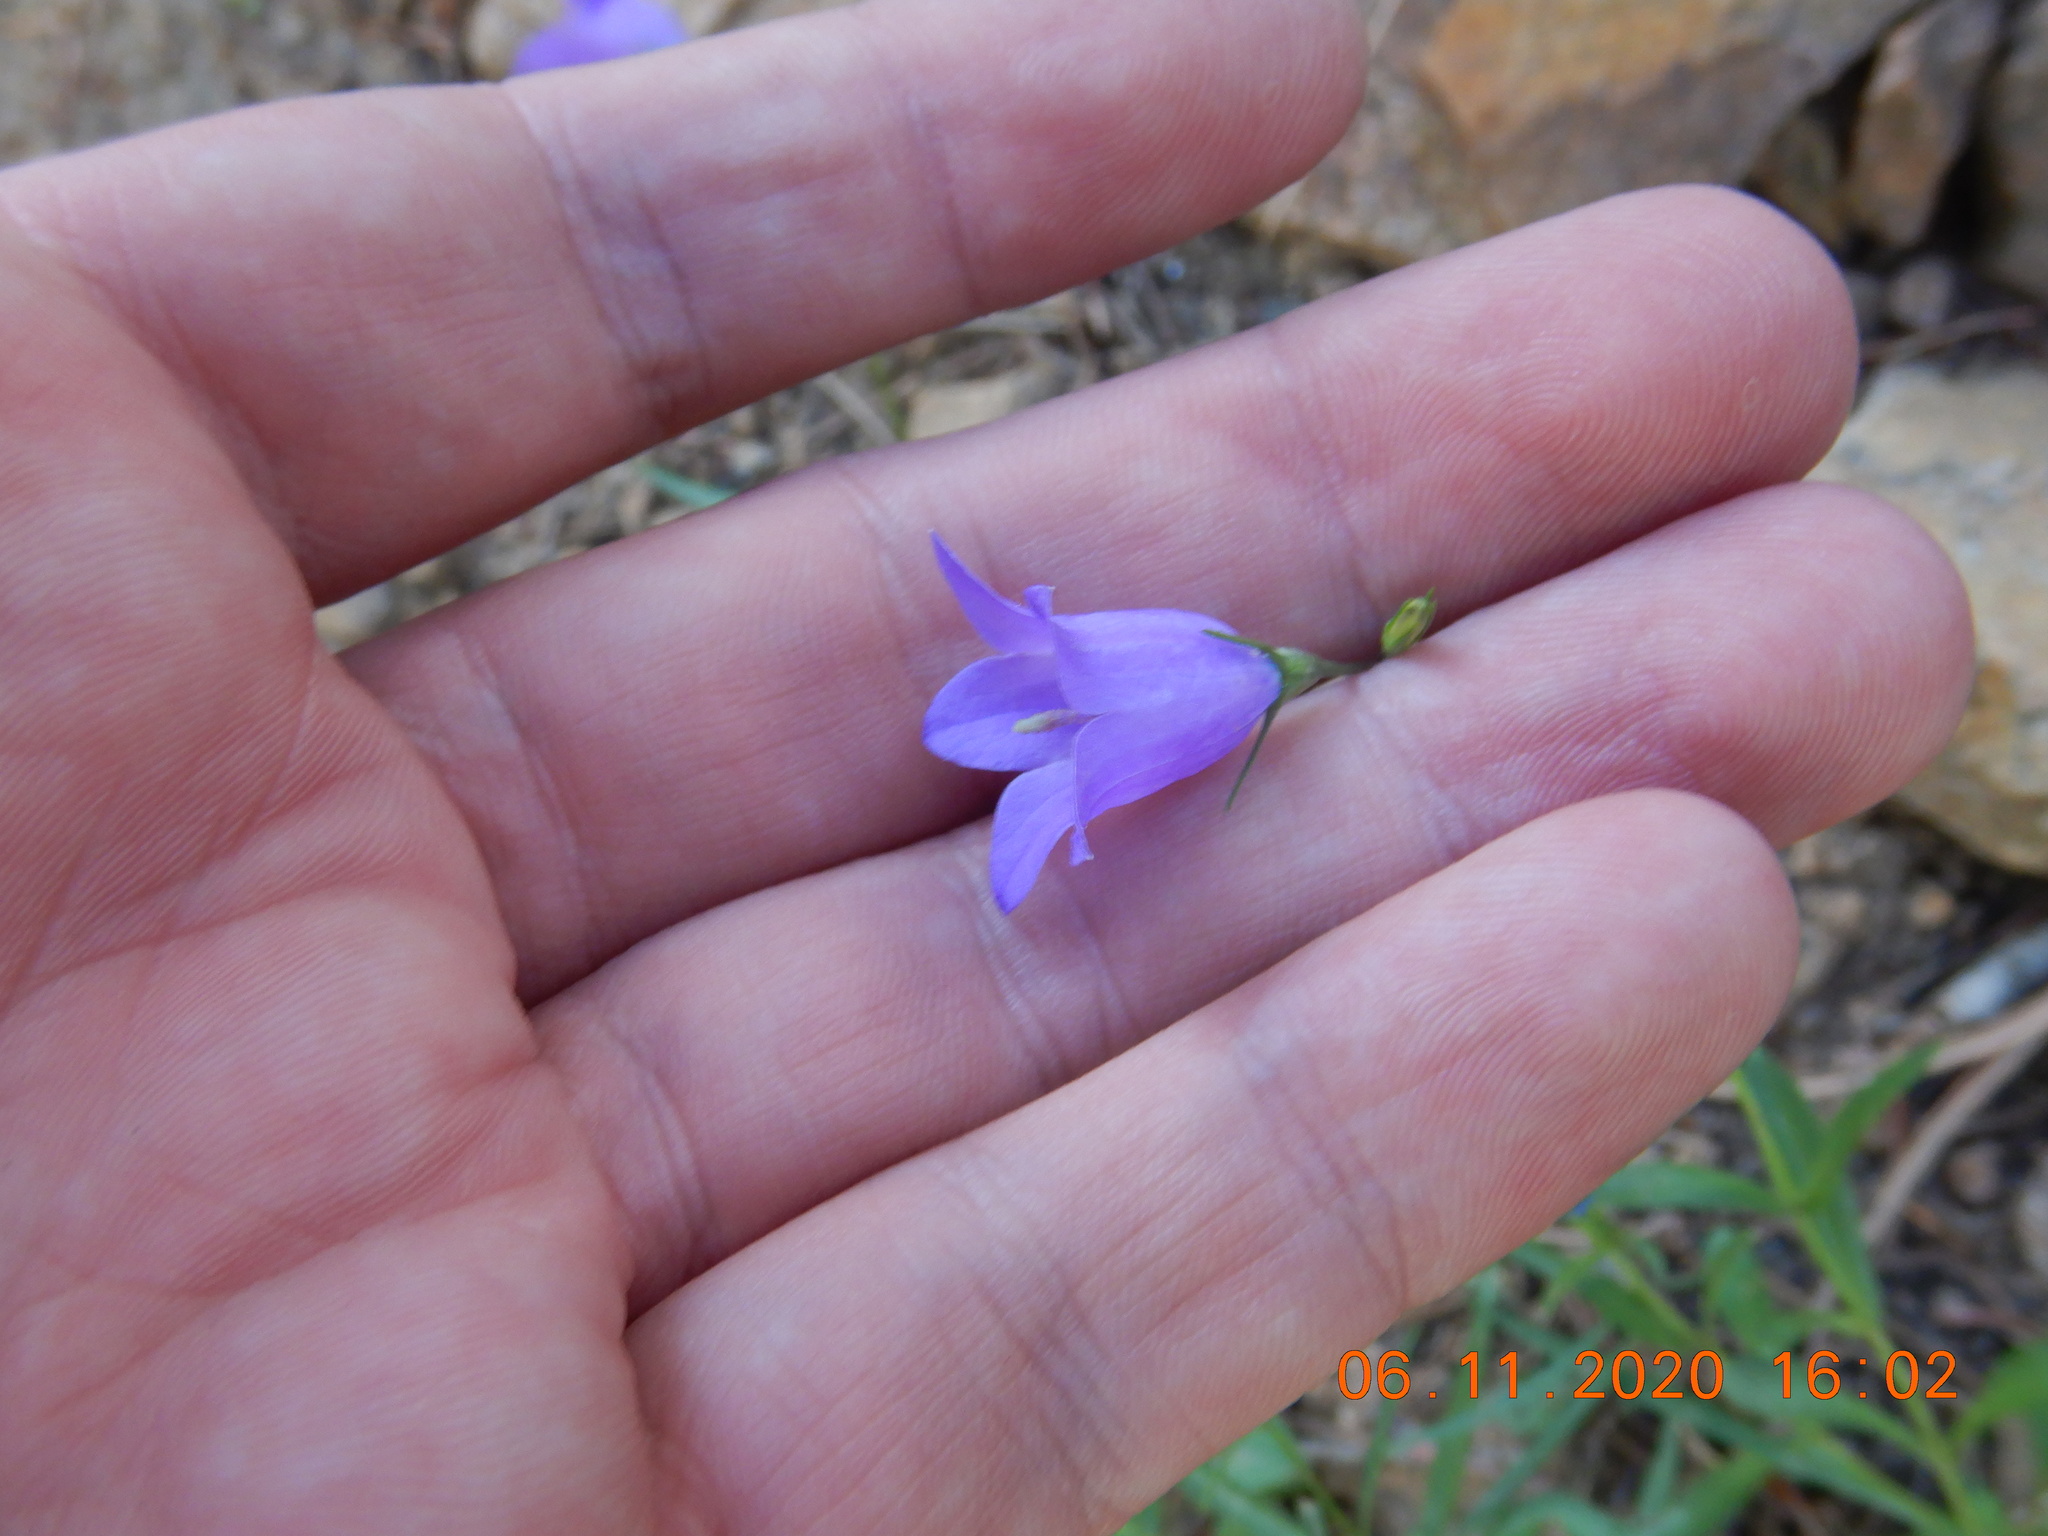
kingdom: Plantae
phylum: Tracheophyta
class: Magnoliopsida
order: Asterales
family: Campanulaceae
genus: Campanula
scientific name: Campanula petiolata
